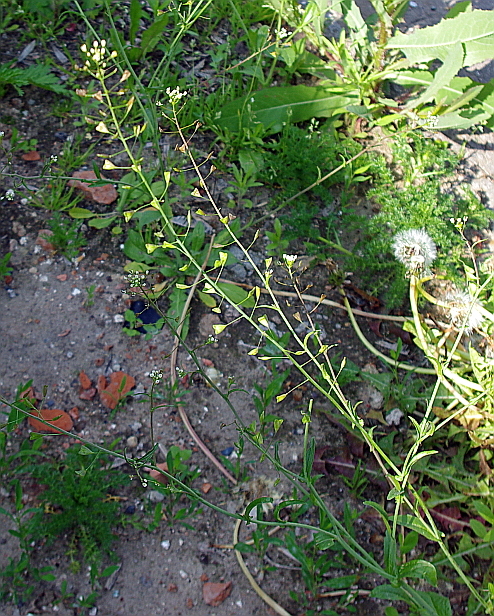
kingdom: Plantae
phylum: Tracheophyta
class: Magnoliopsida
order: Brassicales
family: Brassicaceae
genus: Capsella
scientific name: Capsella bursa-pastoris
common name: Shepherd's purse
